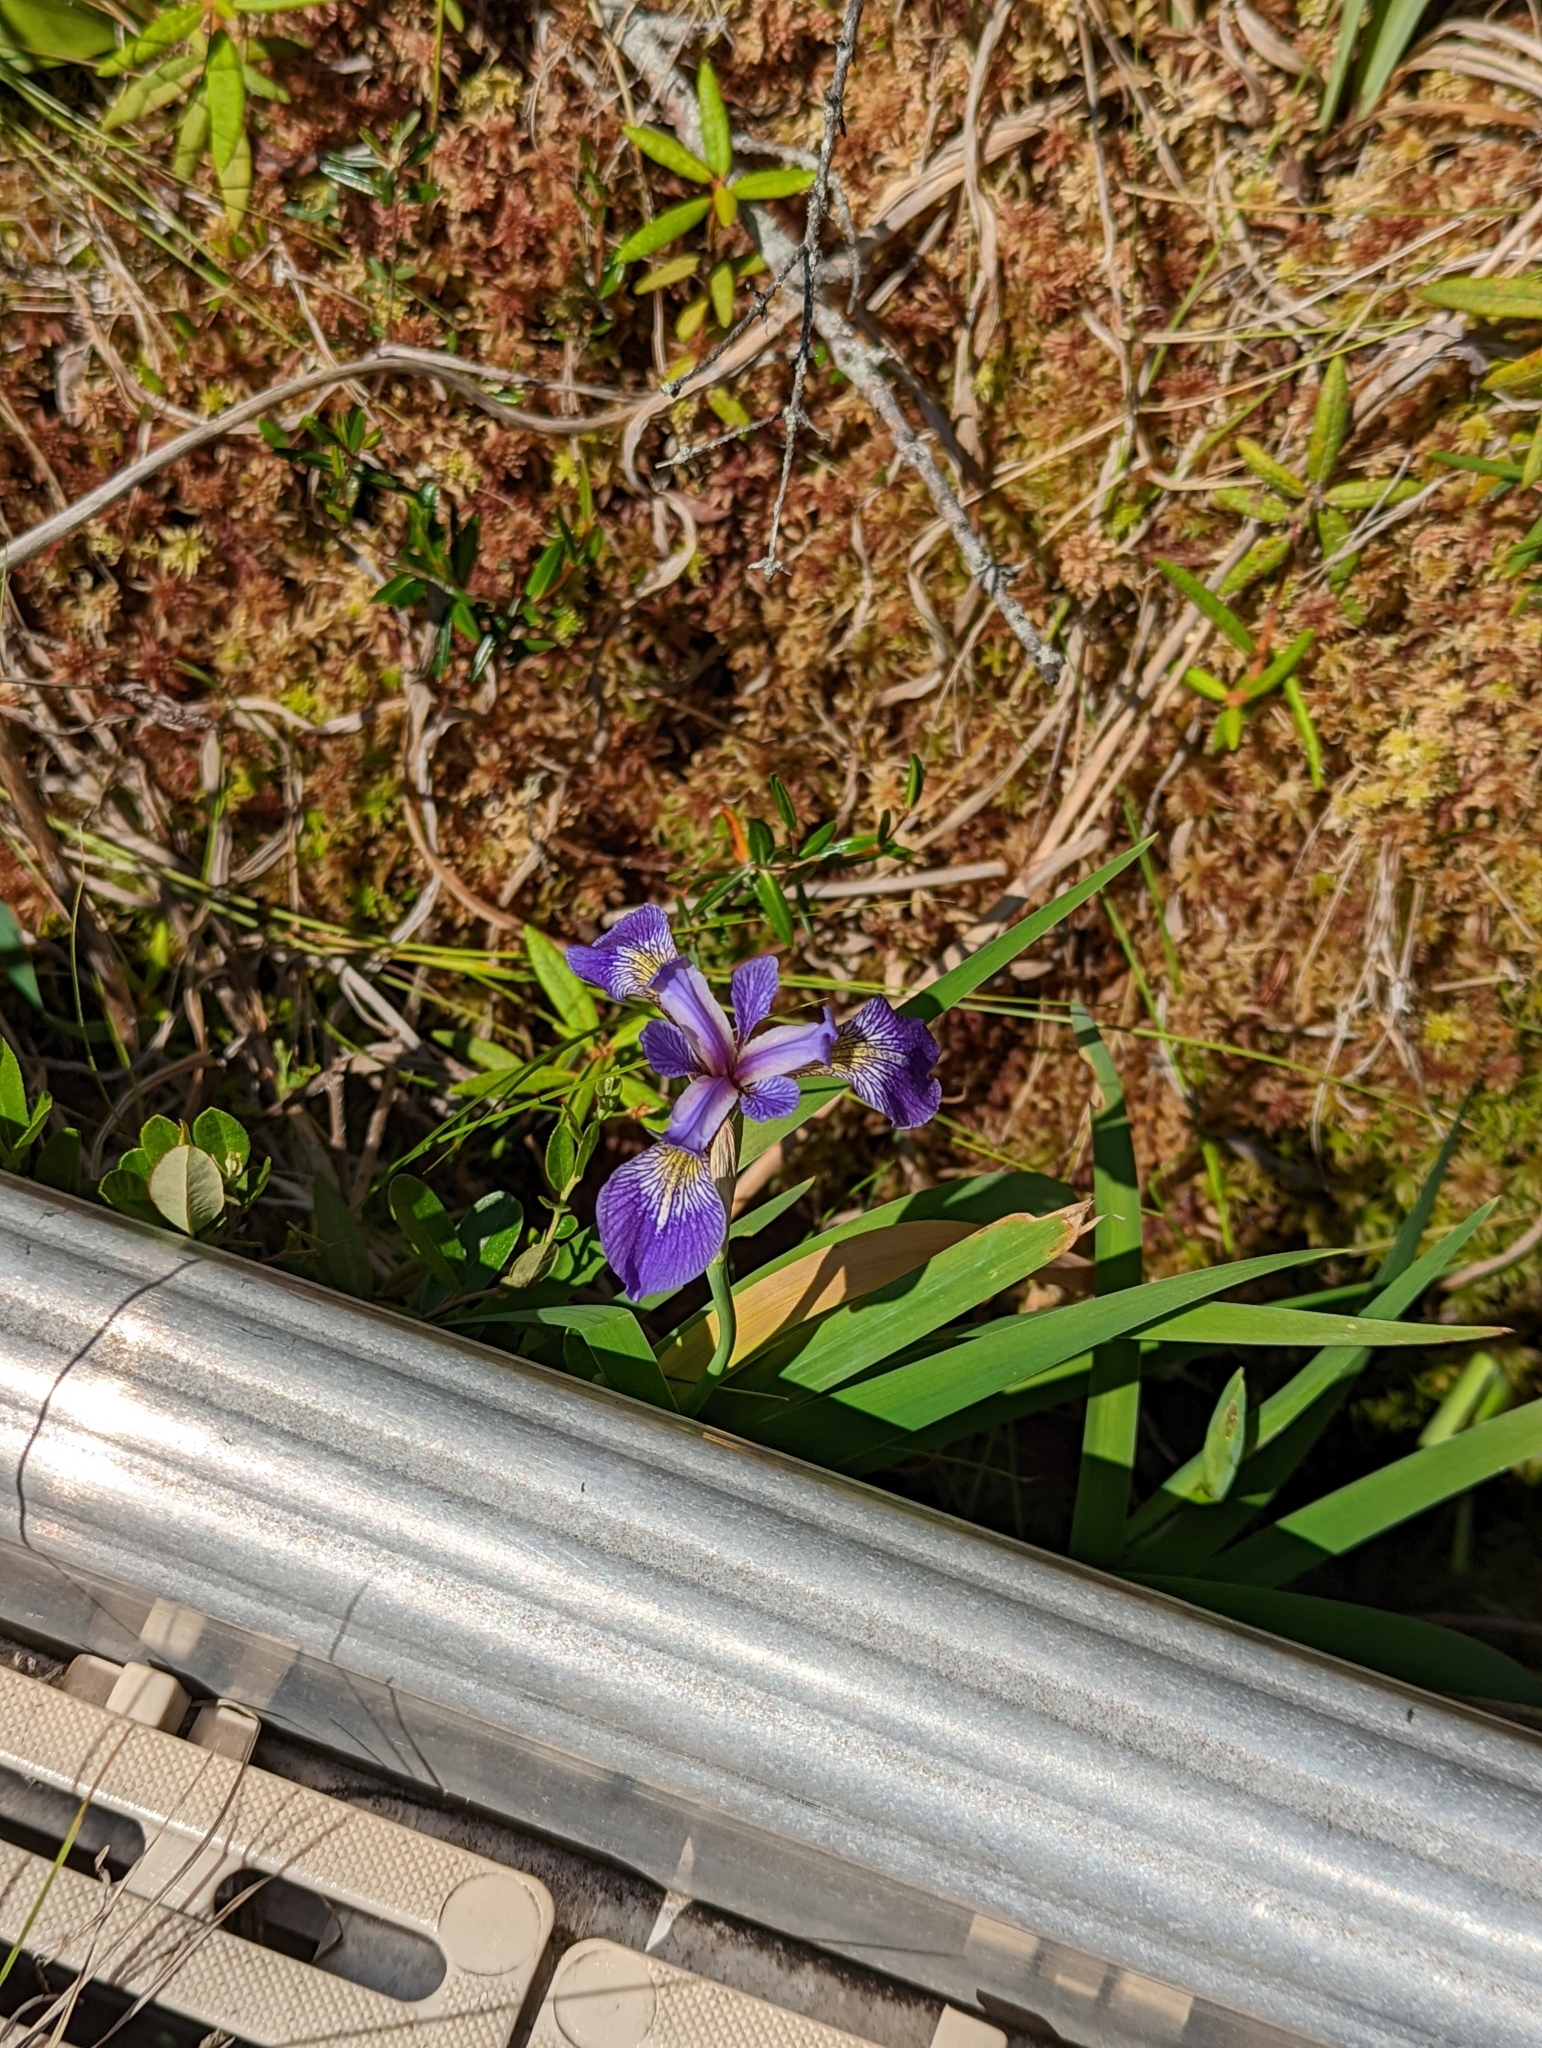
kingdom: Plantae
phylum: Tracheophyta
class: Liliopsida
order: Asparagales
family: Iridaceae
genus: Iris
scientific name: Iris versicolor
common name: Purple iris
